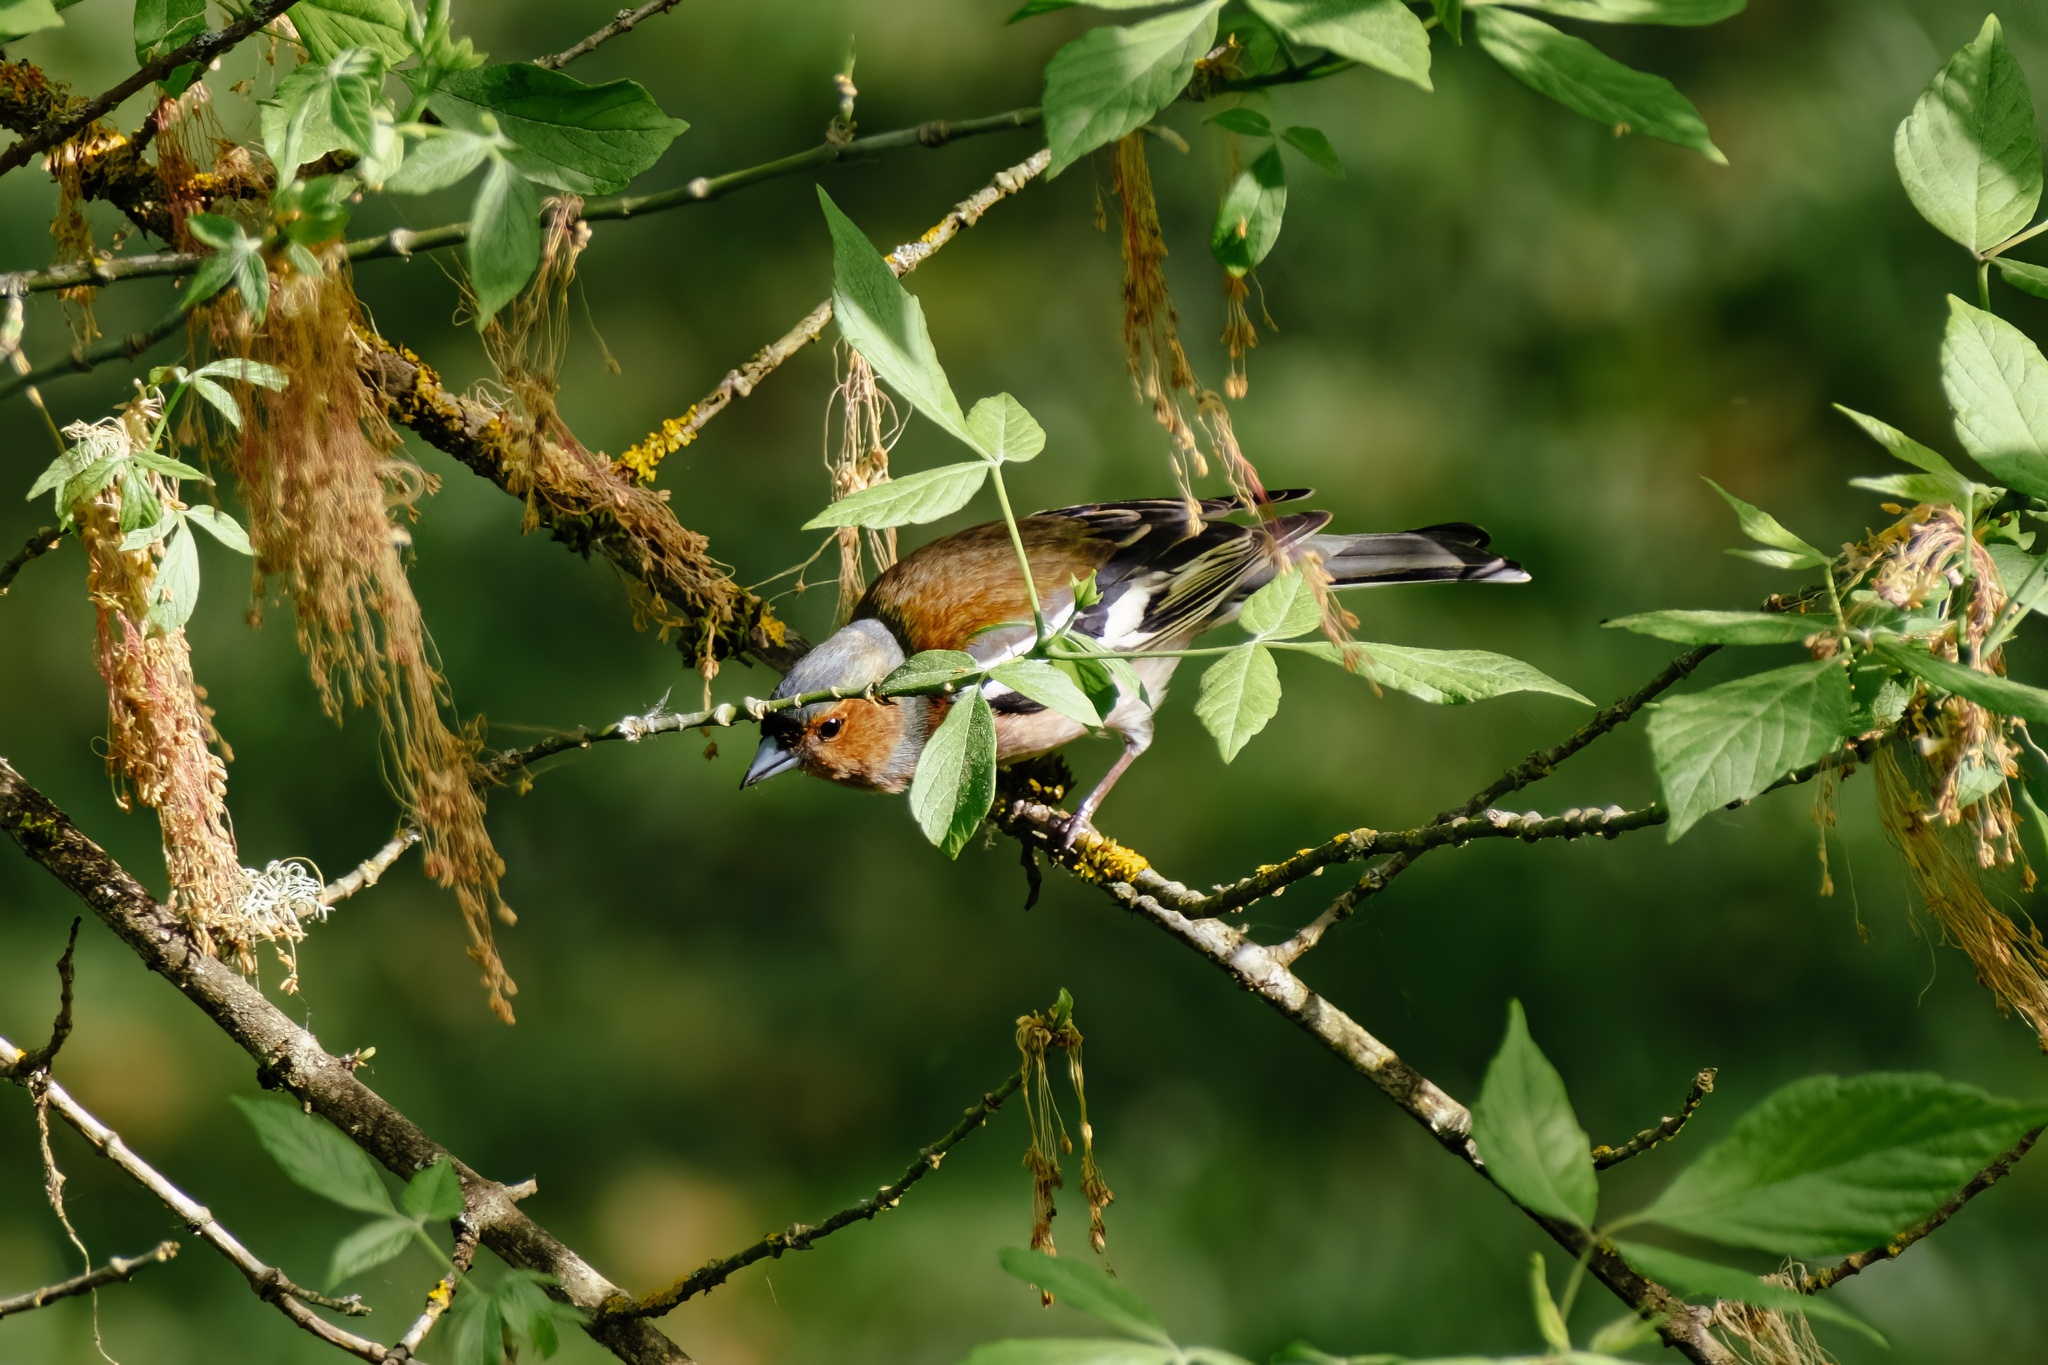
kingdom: Animalia
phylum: Chordata
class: Aves
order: Passeriformes
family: Fringillidae
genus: Fringilla
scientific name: Fringilla coelebs
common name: Common chaffinch
